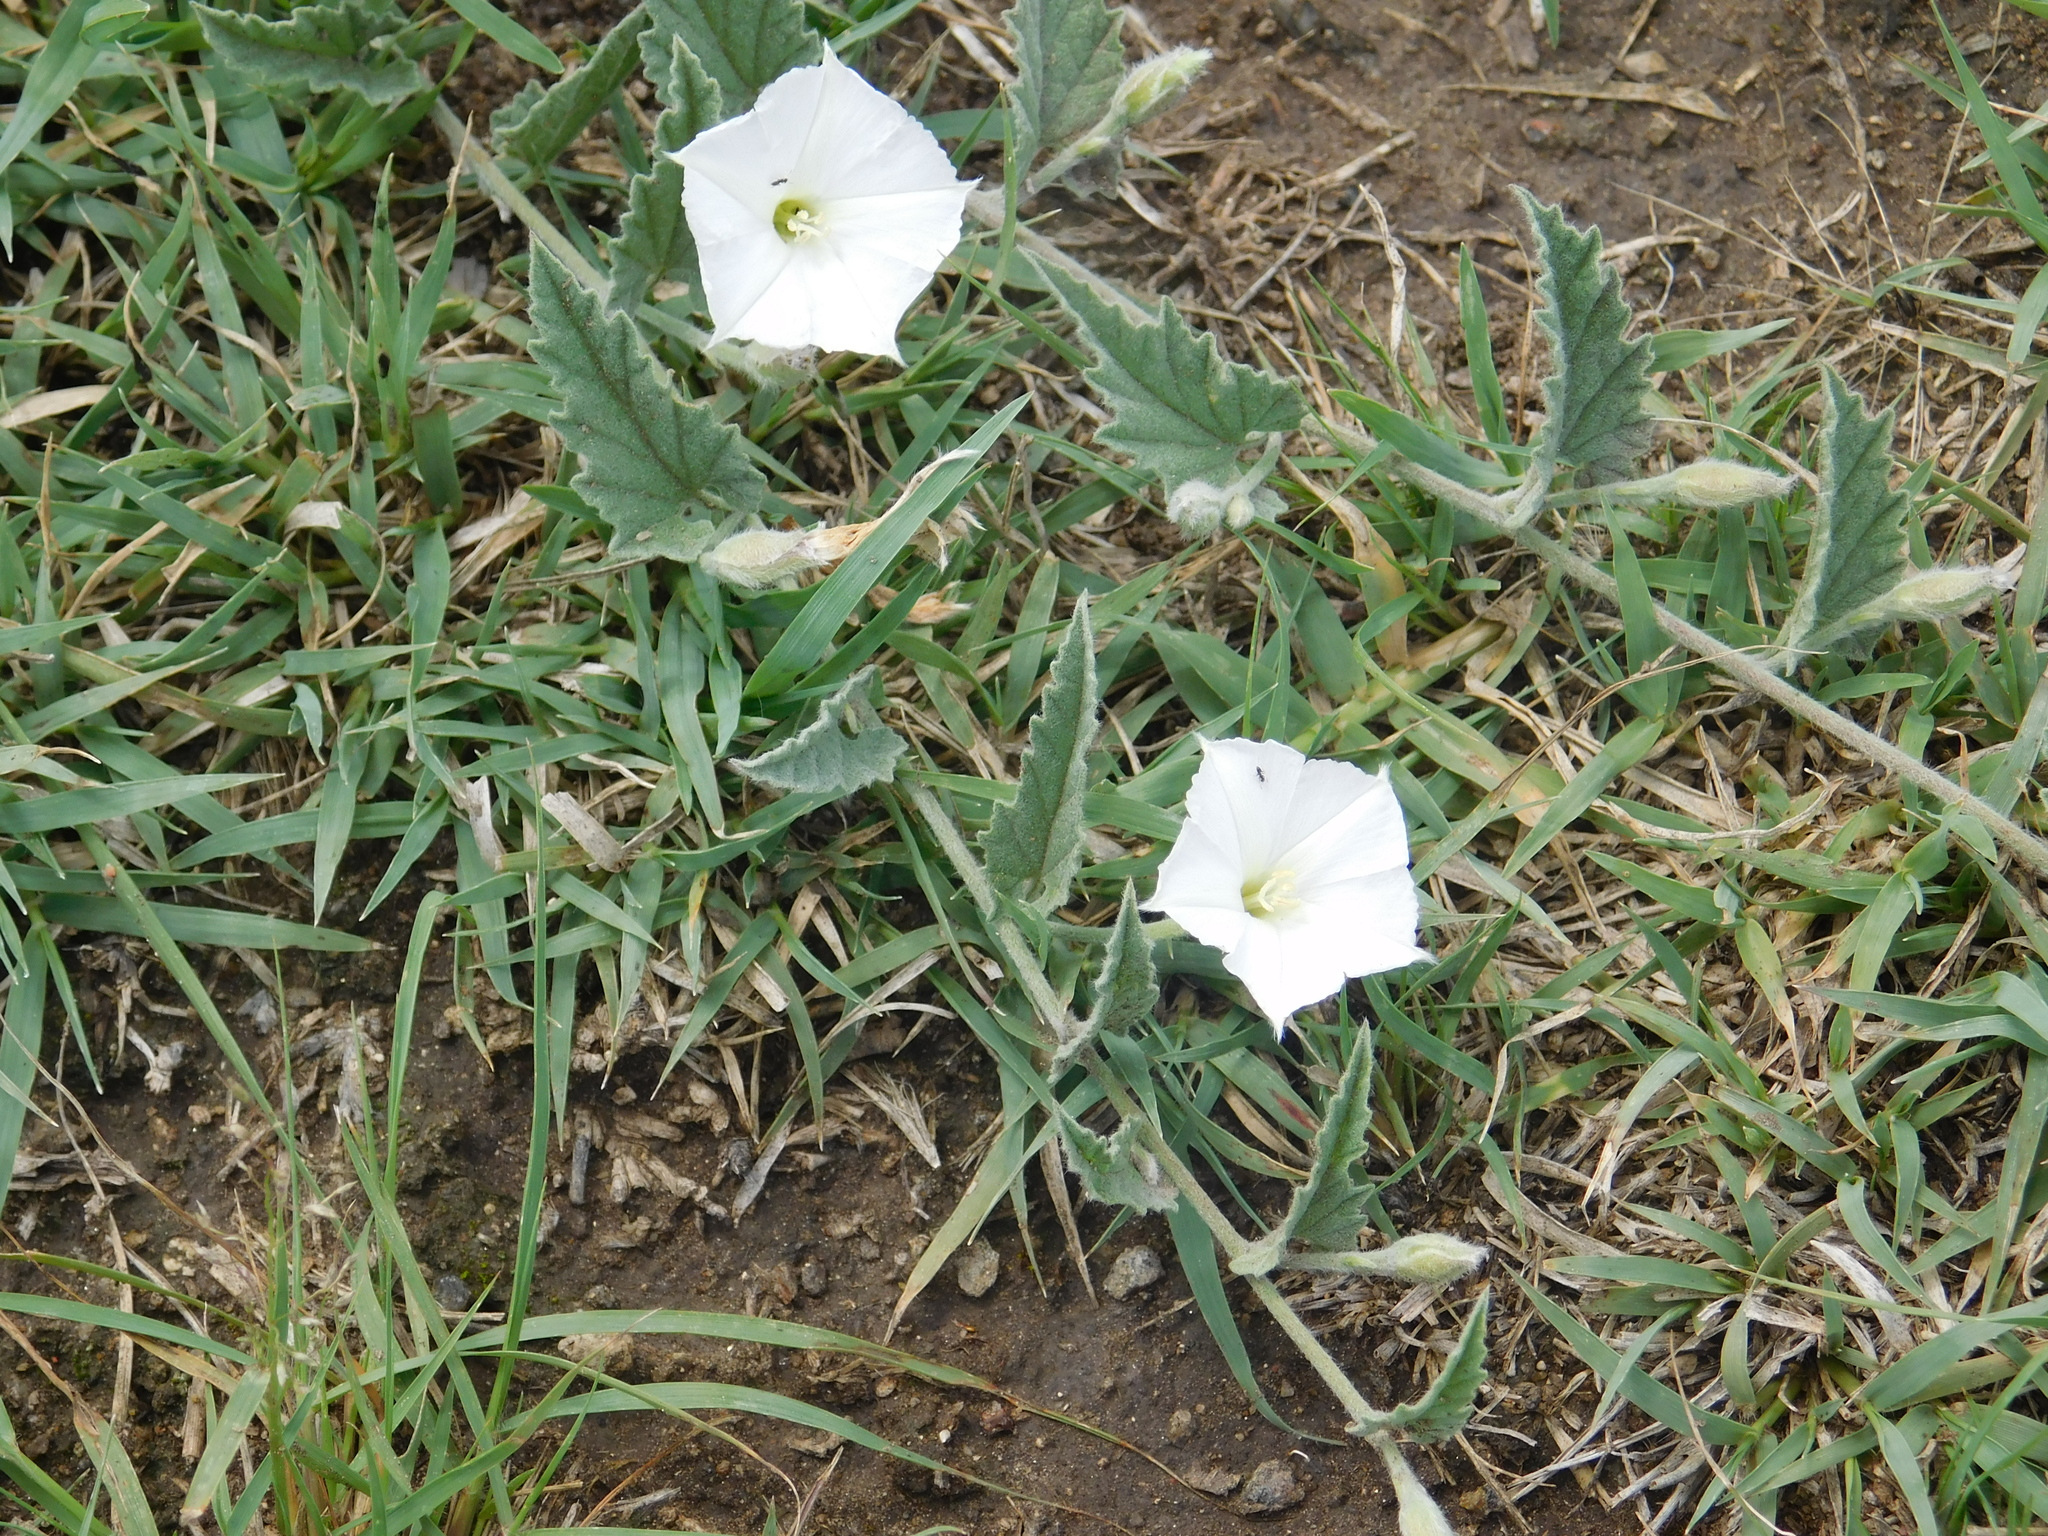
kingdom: Plantae
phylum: Tracheophyta
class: Magnoliopsida
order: Solanales
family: Convolvulaceae
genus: Convolvulus
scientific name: Convolvulus hermanniae
